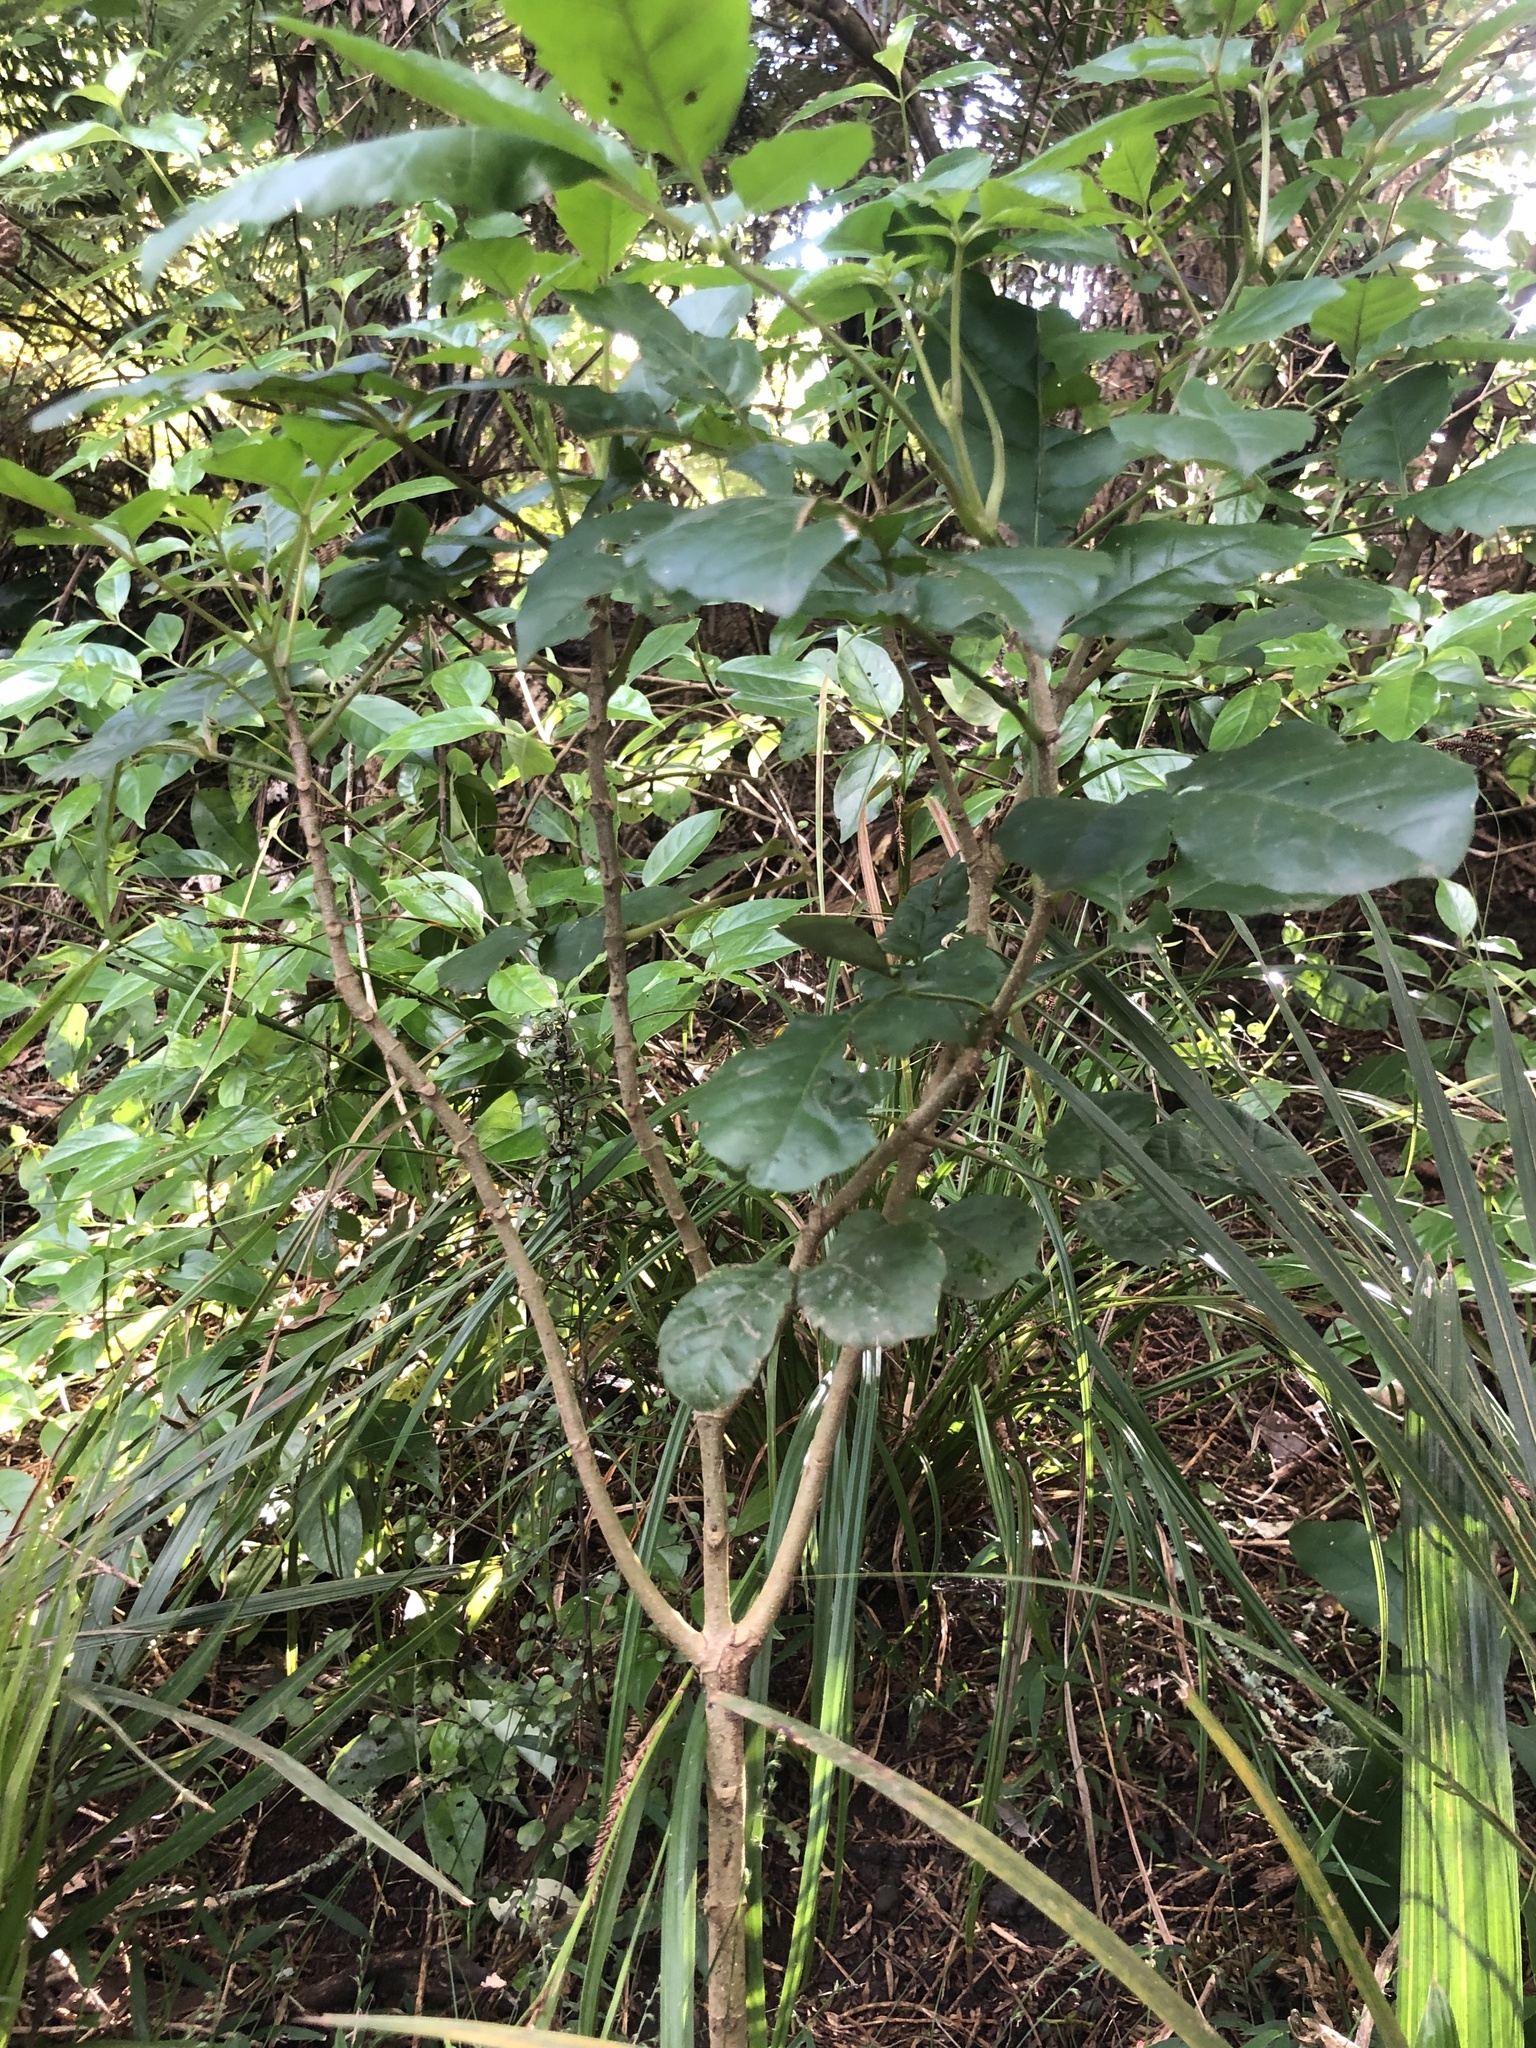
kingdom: Plantae
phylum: Tracheophyta
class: Magnoliopsida
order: Lamiales
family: Lamiaceae
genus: Vitex
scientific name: Vitex lucens
